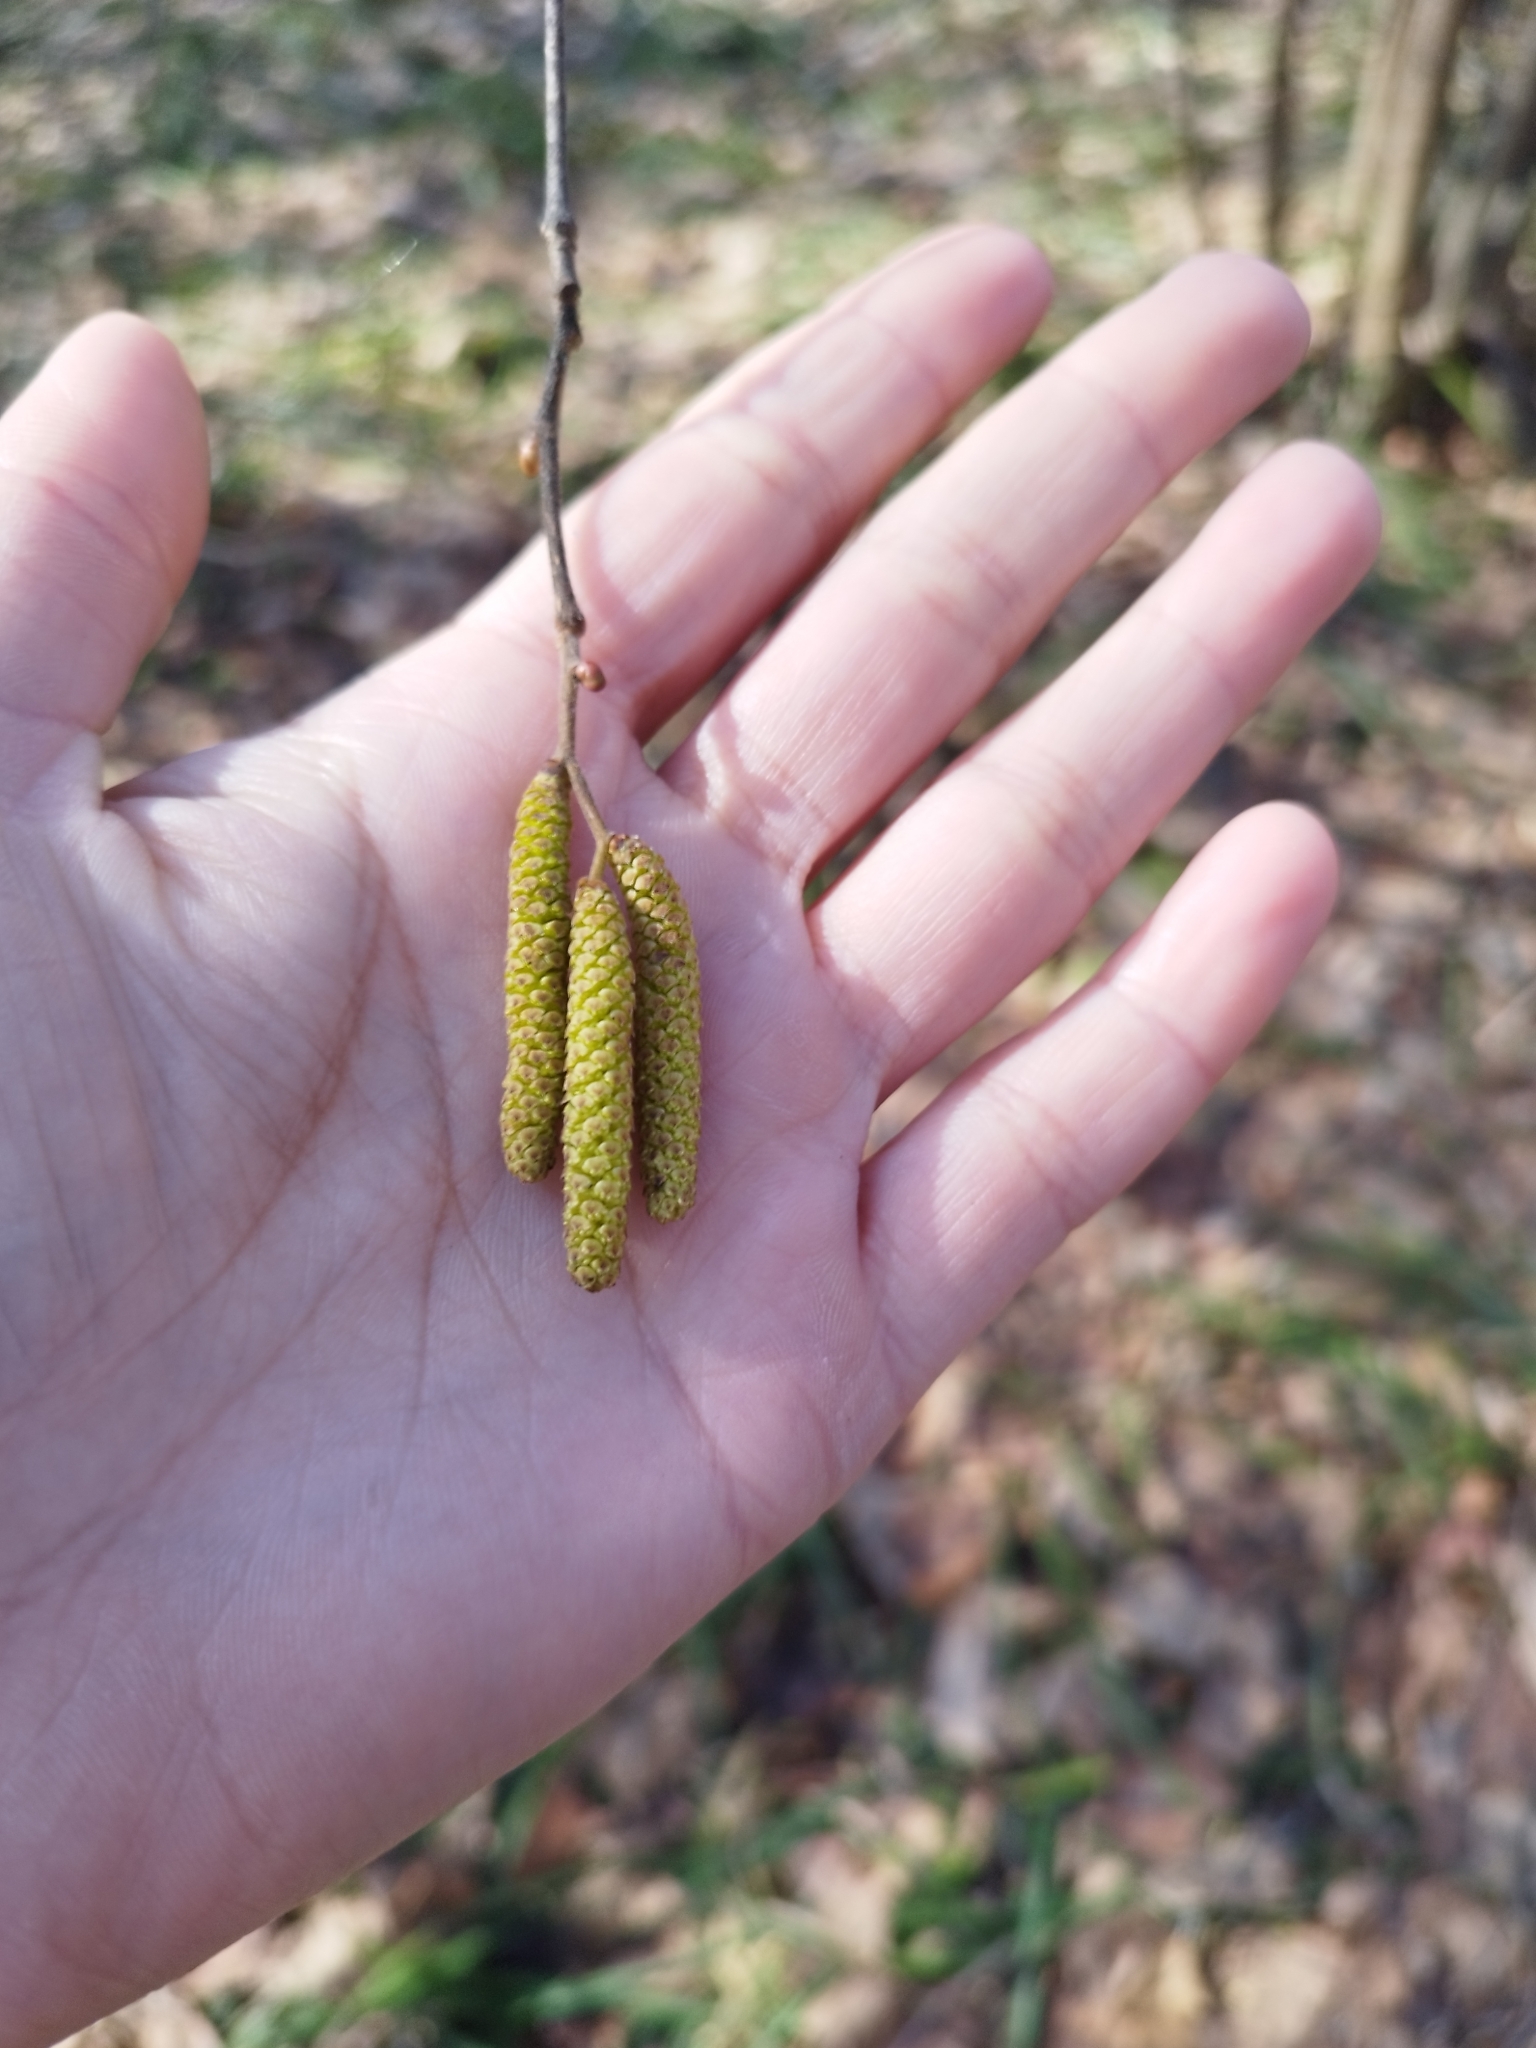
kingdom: Plantae
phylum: Tracheophyta
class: Magnoliopsida
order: Fagales
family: Betulaceae
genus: Corylus
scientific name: Corylus avellana
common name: European hazel
